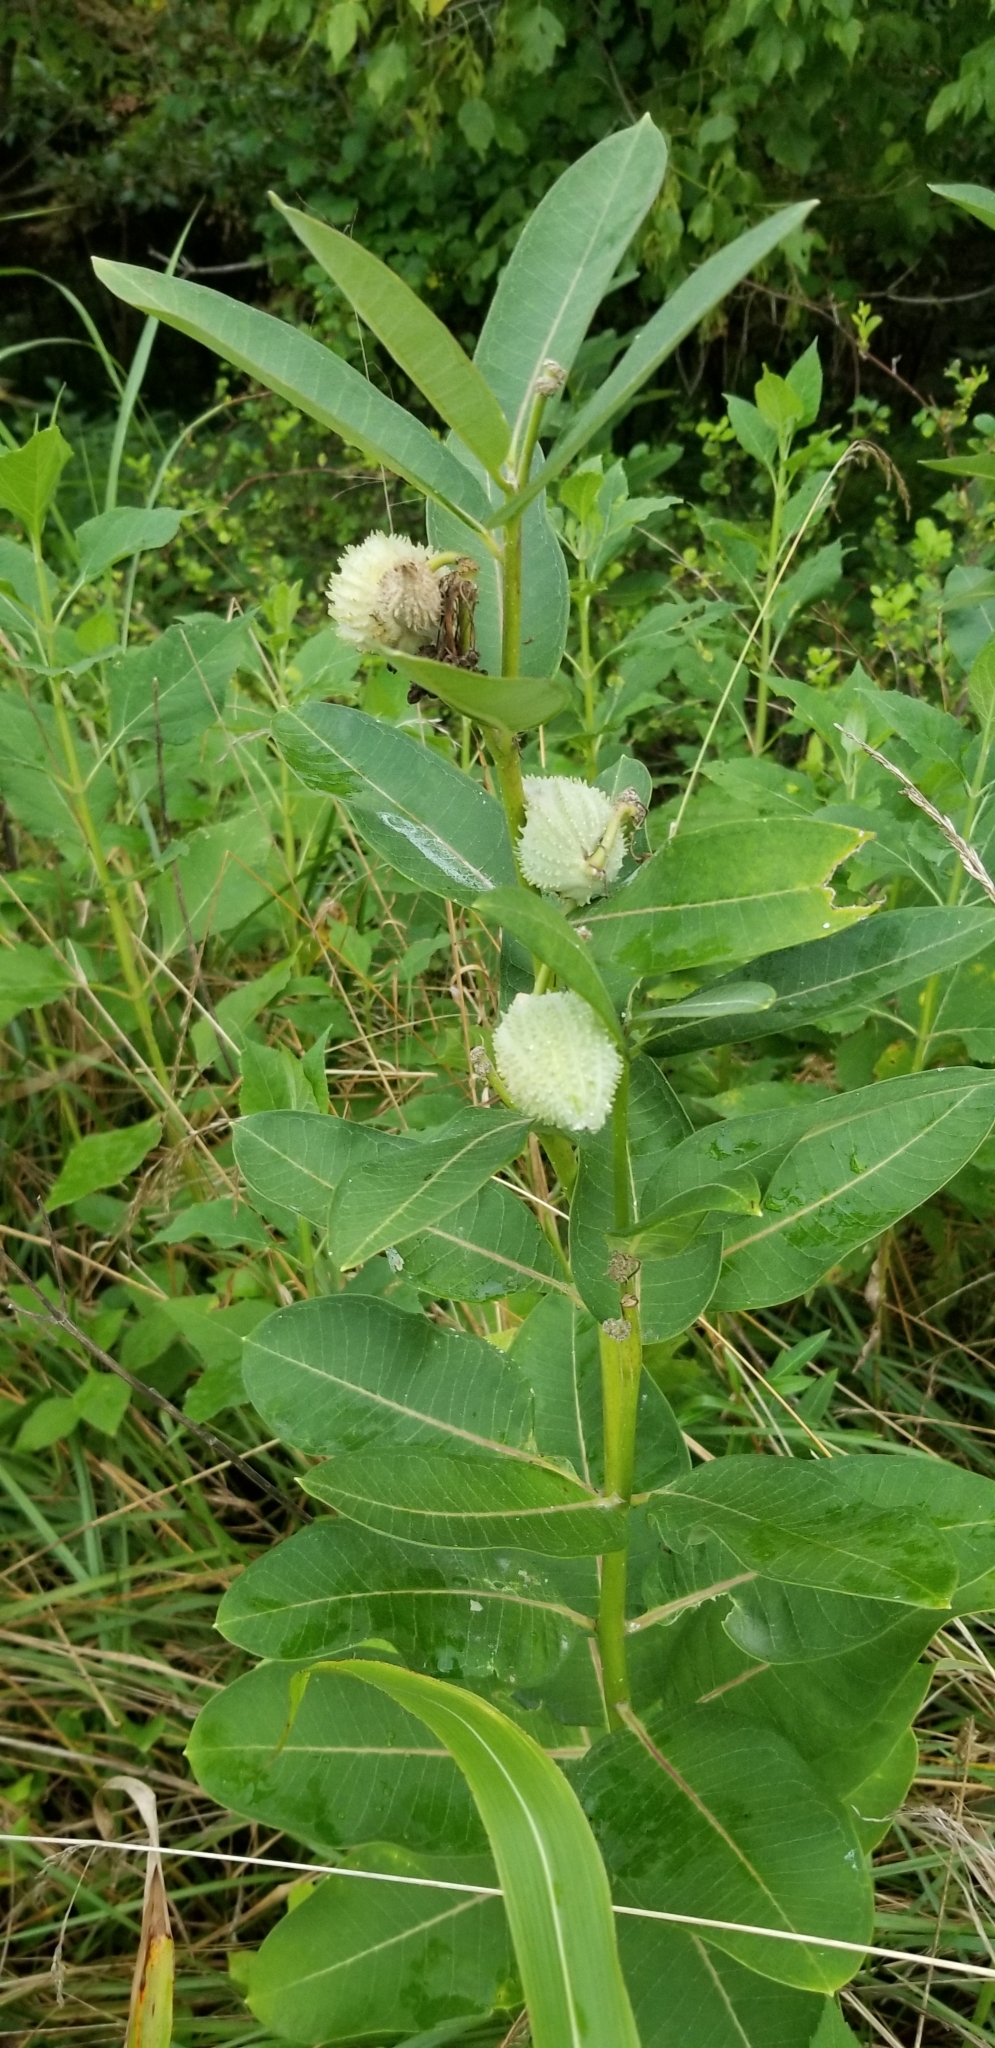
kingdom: Plantae
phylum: Tracheophyta
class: Magnoliopsida
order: Gentianales
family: Apocynaceae
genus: Asclepias
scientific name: Asclepias syriaca
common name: Common milkweed
